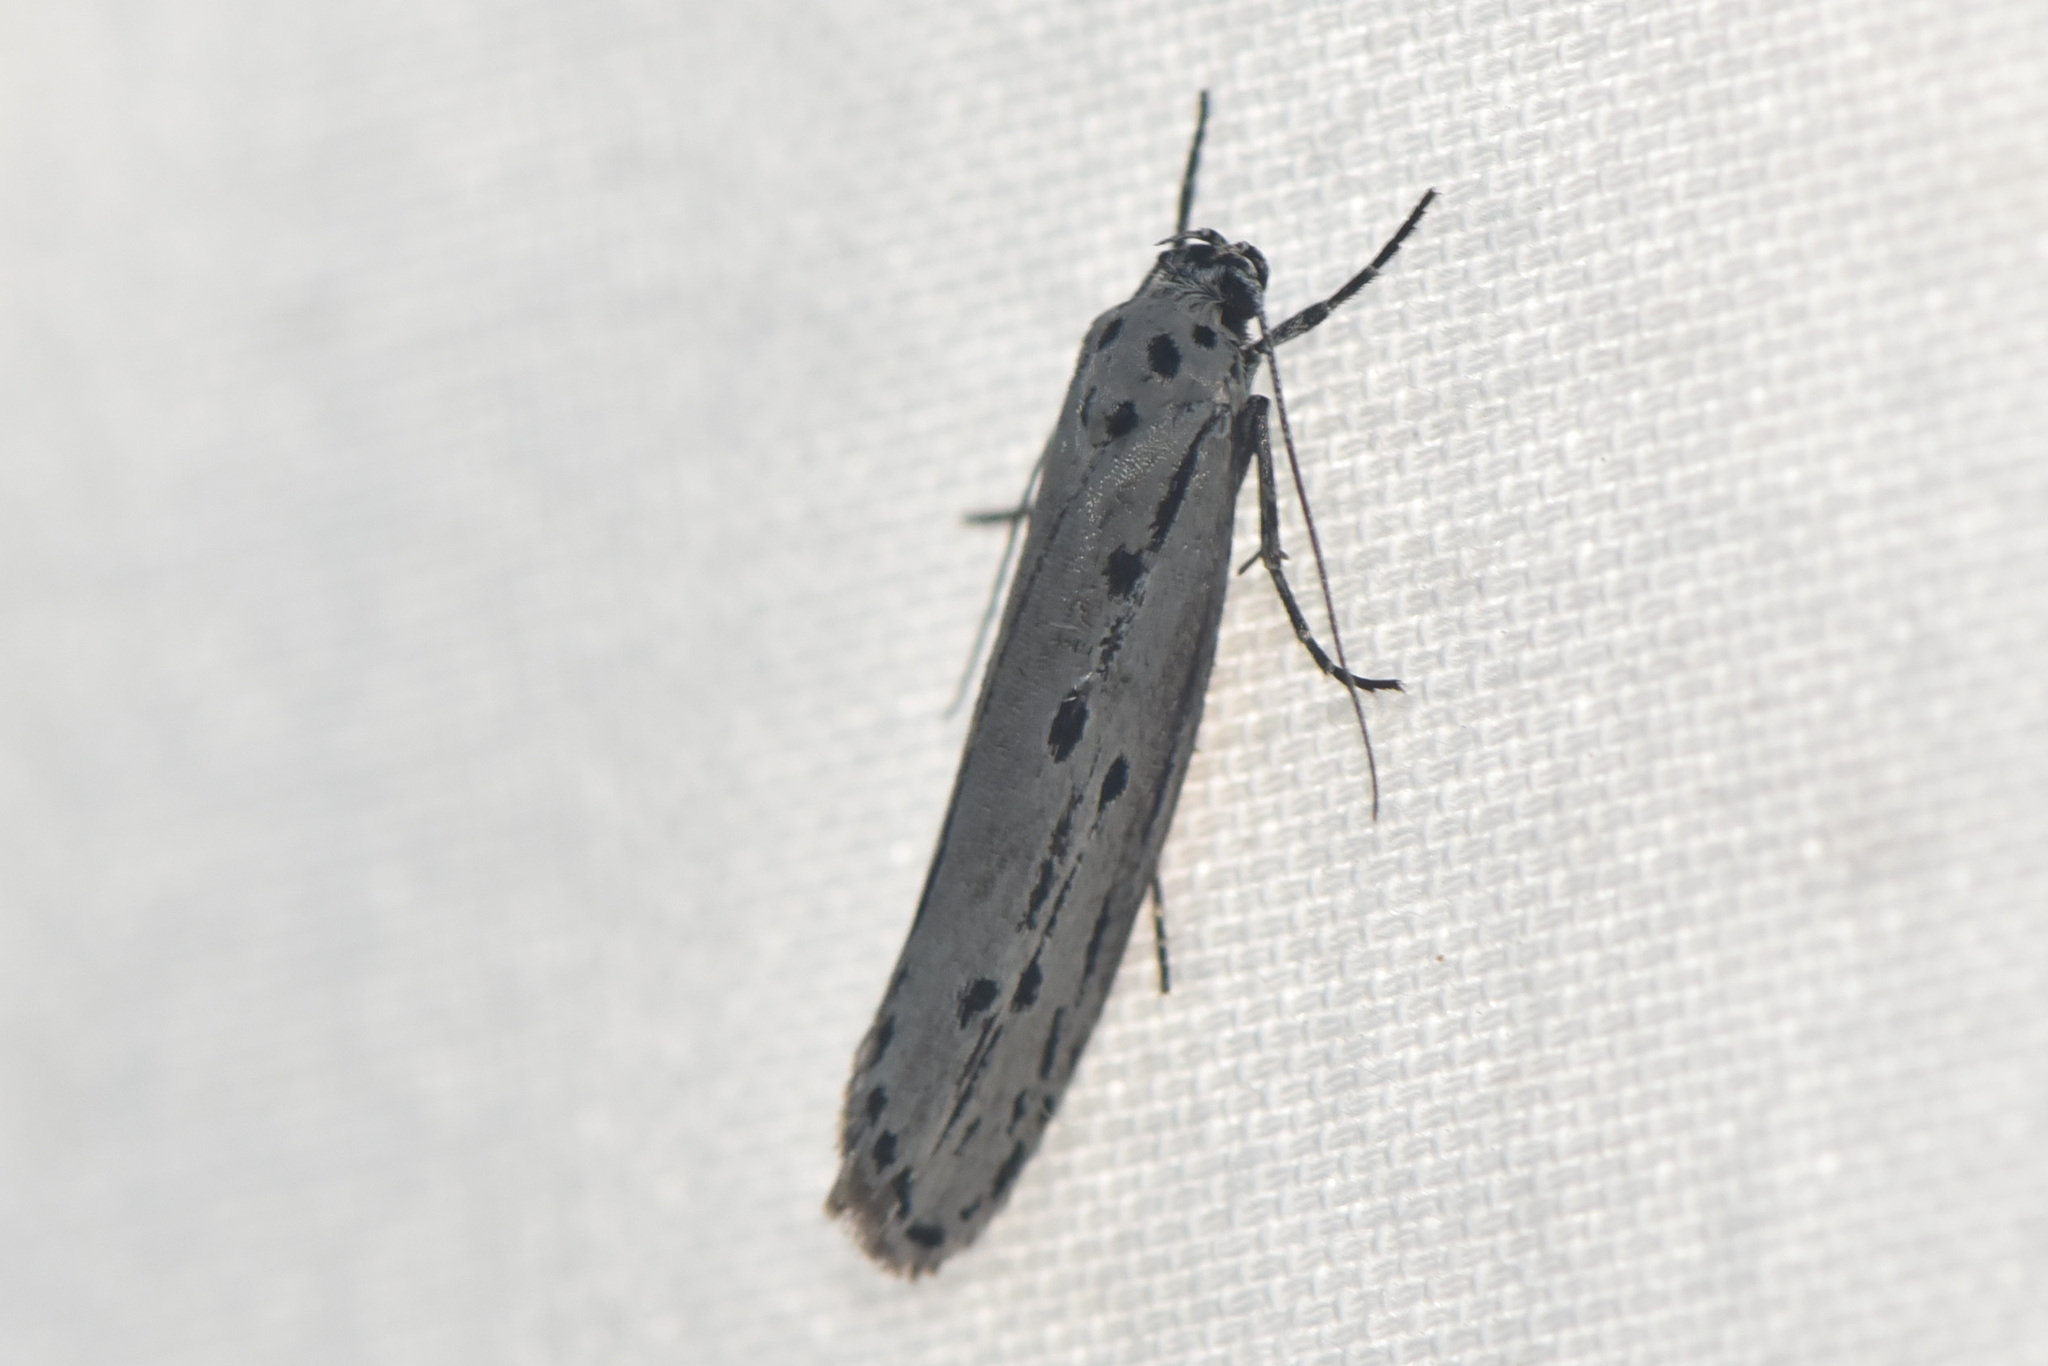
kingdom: Animalia
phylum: Arthropoda
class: Insecta
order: Lepidoptera
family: Ethmiidae
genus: Ethmia
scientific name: Ethmia monticola
